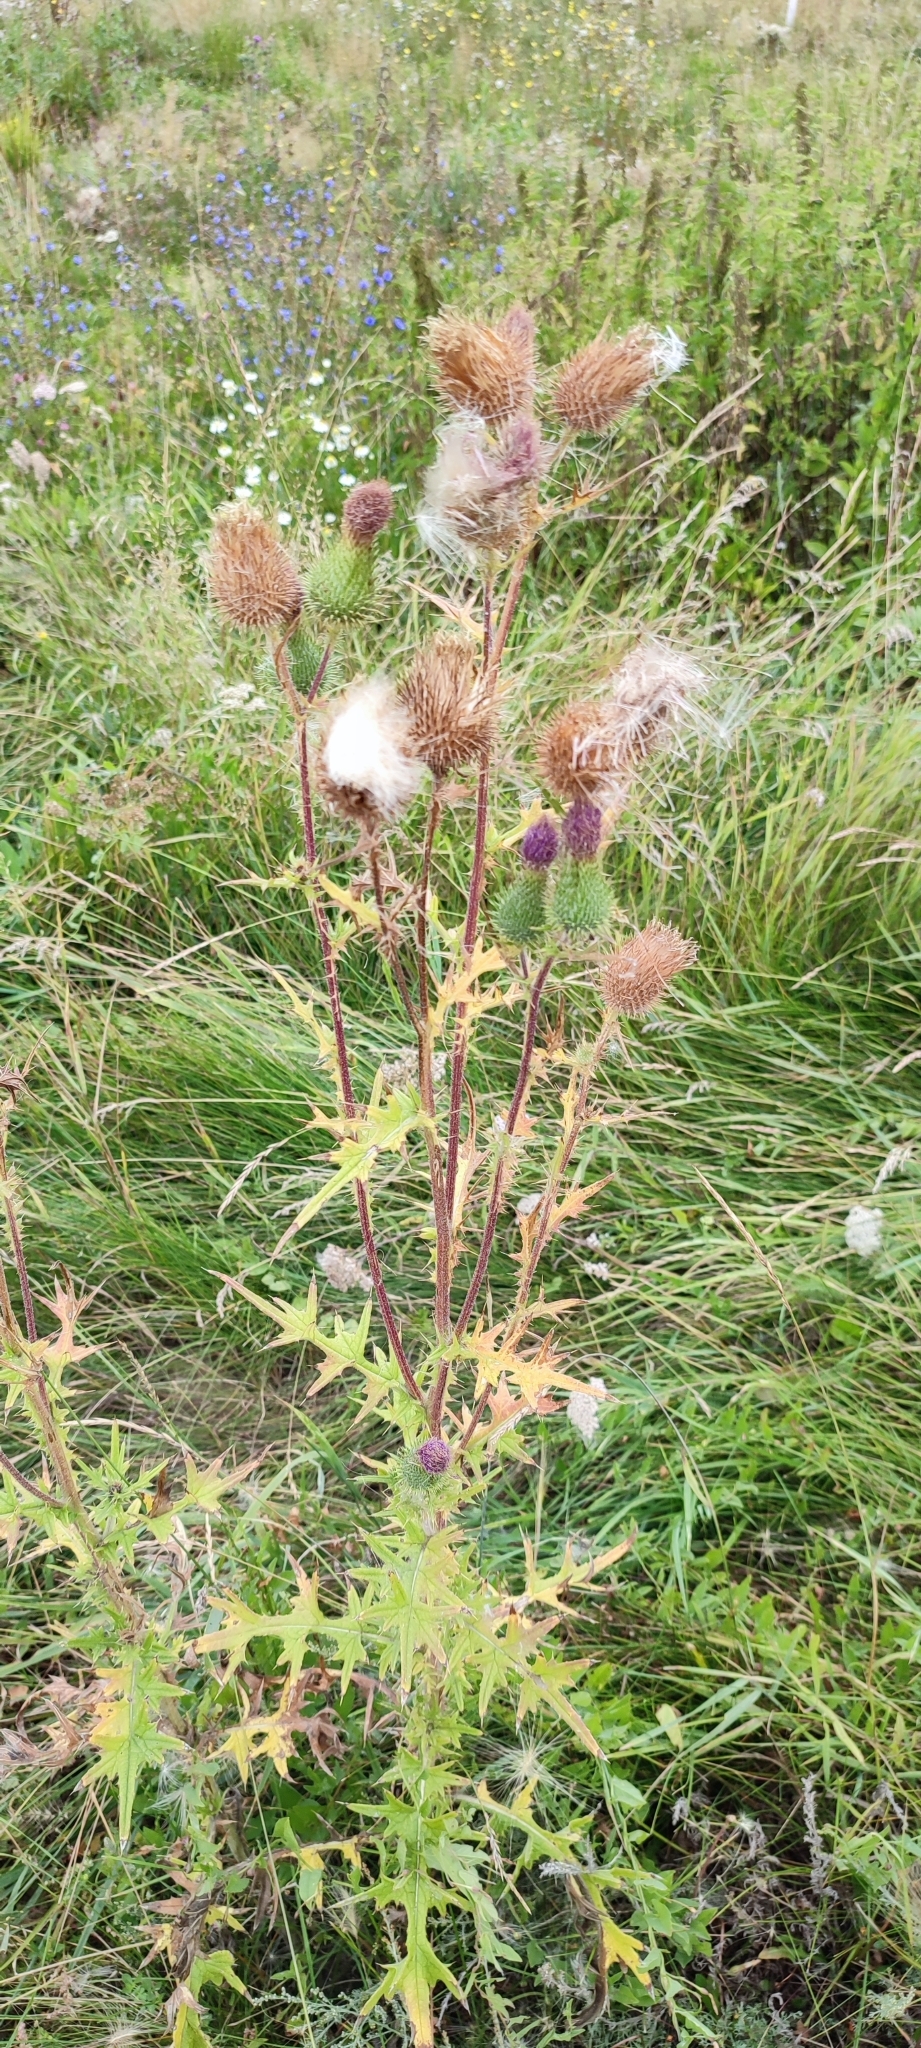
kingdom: Plantae
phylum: Tracheophyta
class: Magnoliopsida
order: Asterales
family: Asteraceae
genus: Cirsium
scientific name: Cirsium vulgare
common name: Bull thistle
